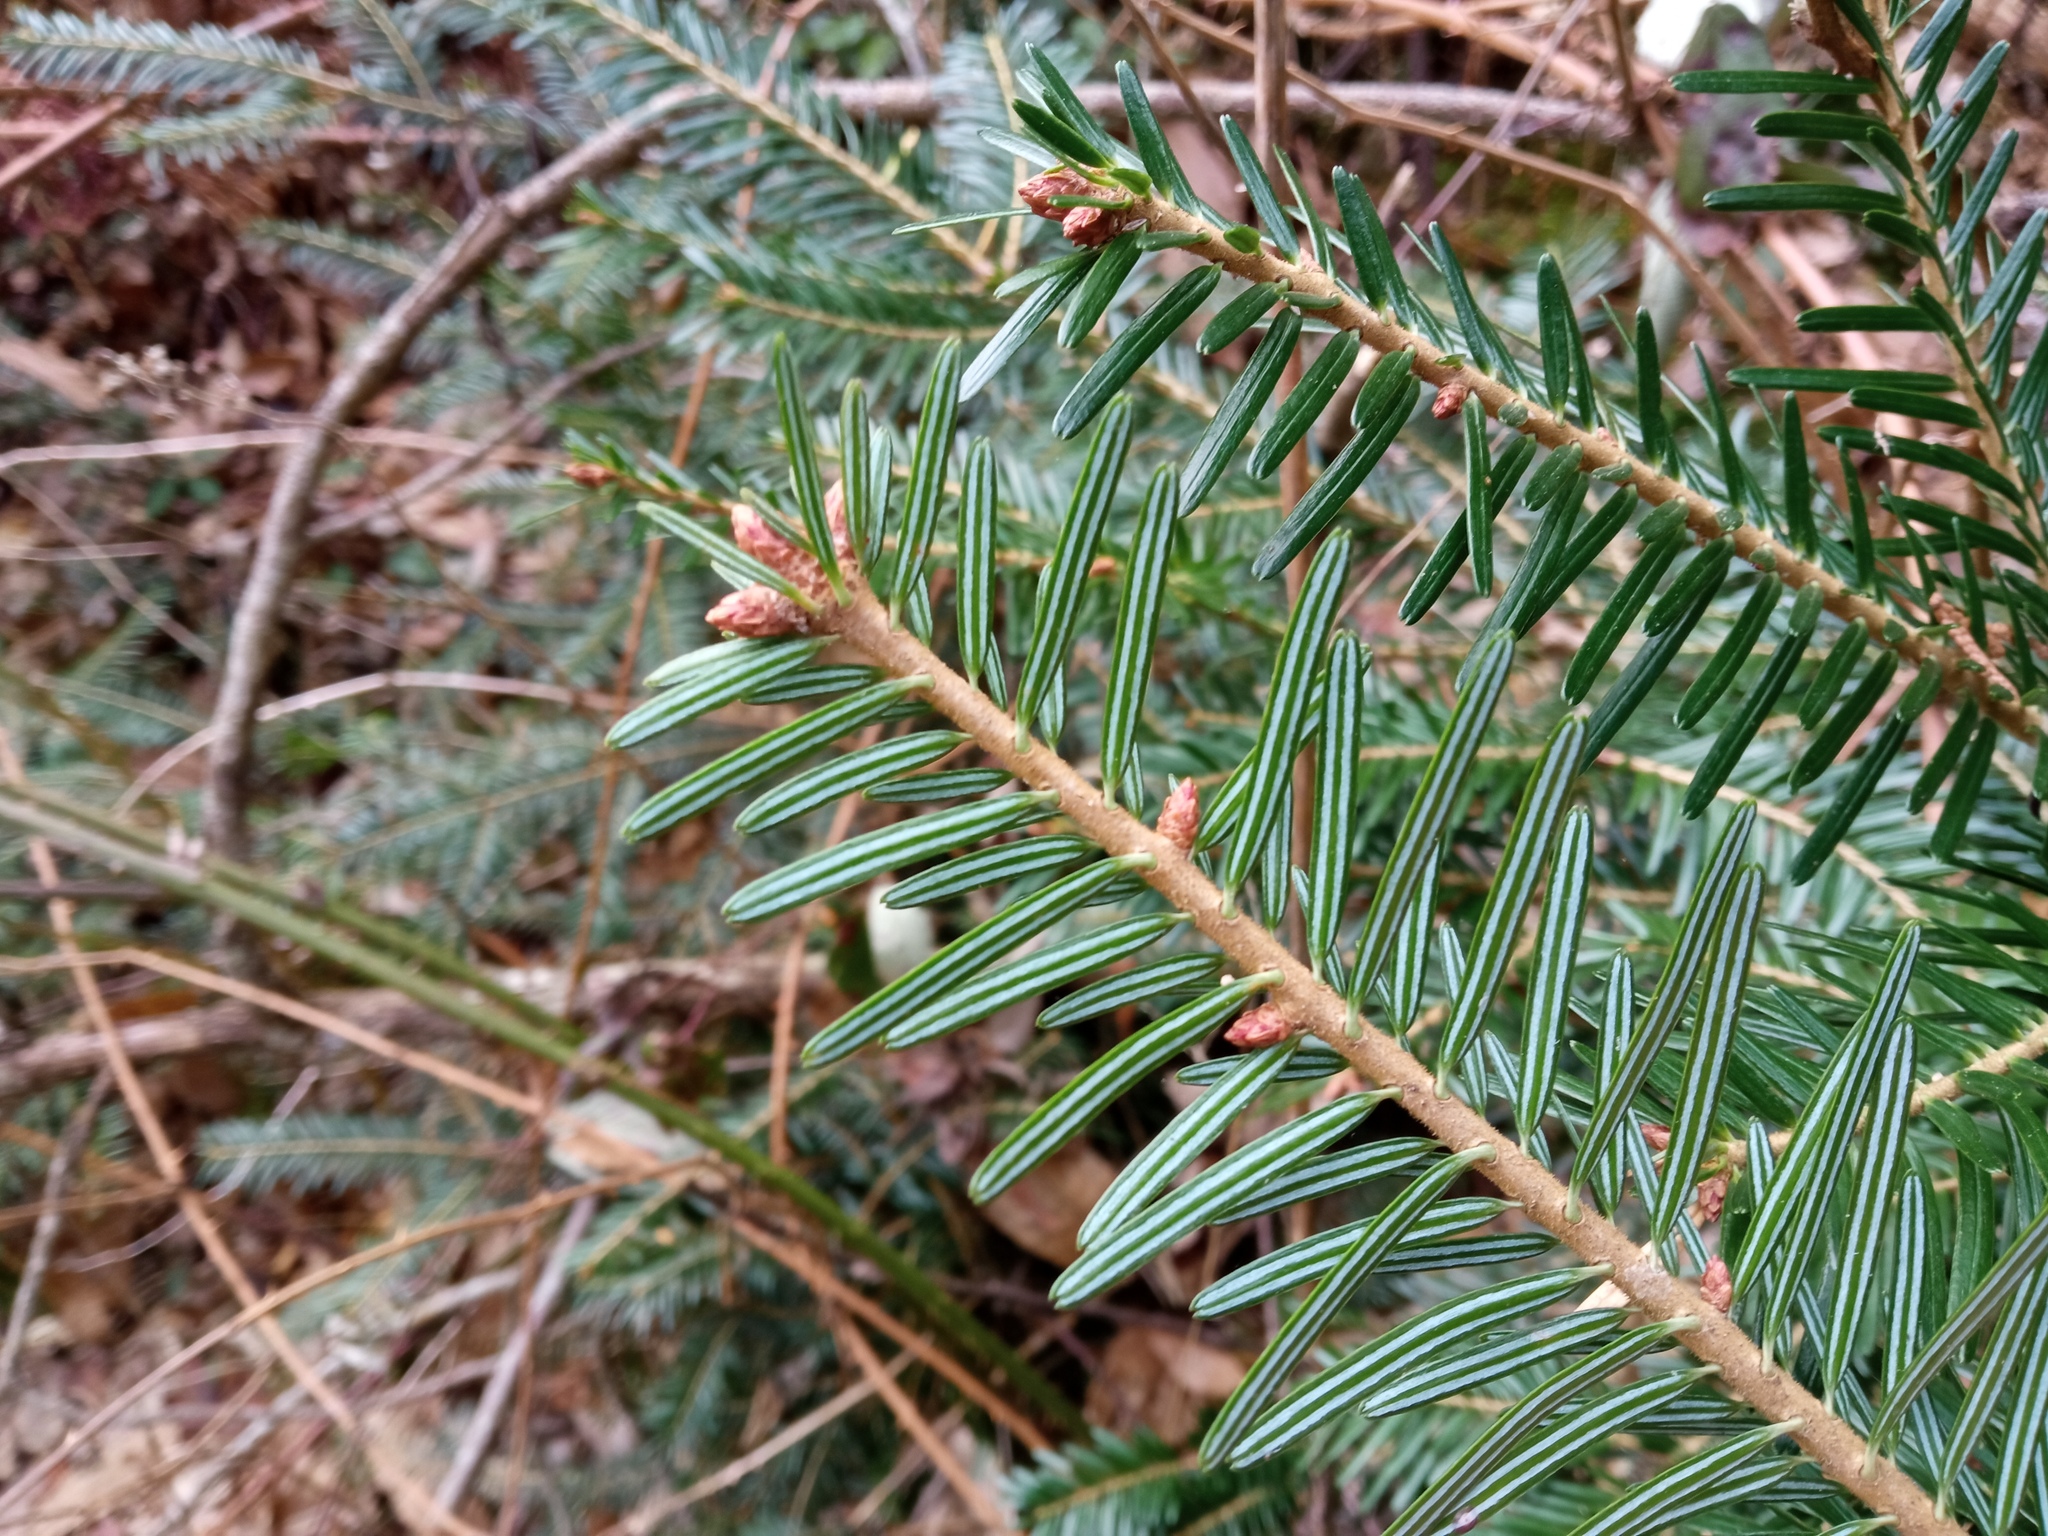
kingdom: Plantae
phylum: Tracheophyta
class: Pinopsida
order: Pinales
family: Pinaceae
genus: Abies
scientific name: Abies alba
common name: Silver fir
